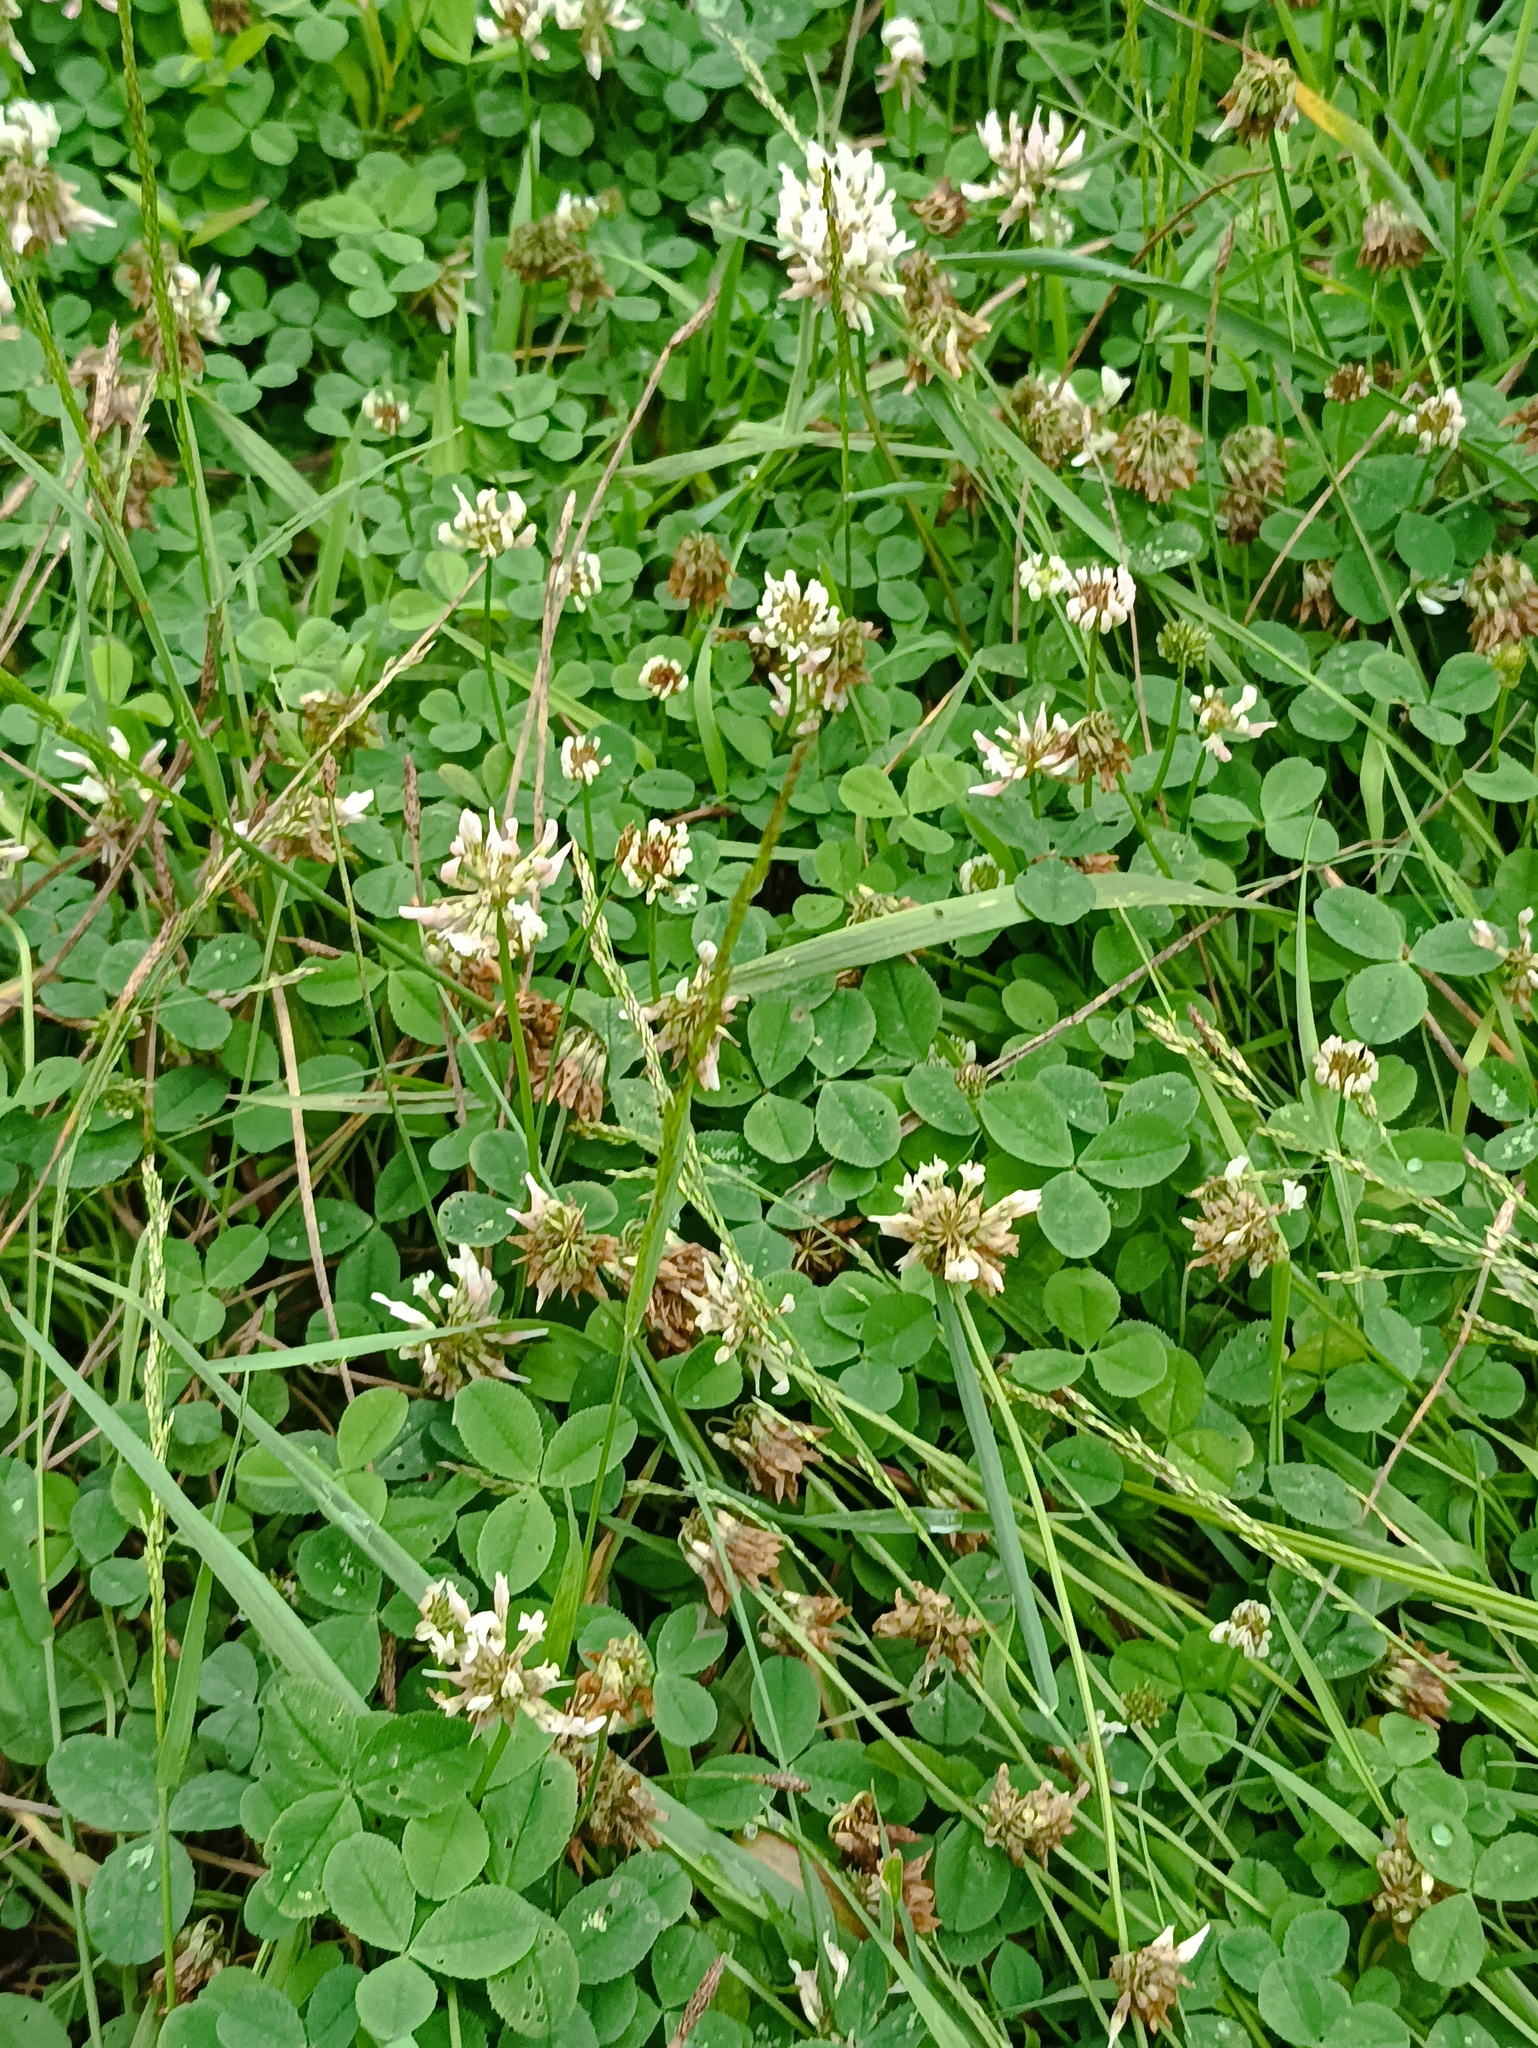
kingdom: Plantae
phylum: Tracheophyta
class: Magnoliopsida
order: Fabales
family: Fabaceae
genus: Trifolium
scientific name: Trifolium repens
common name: White clover
